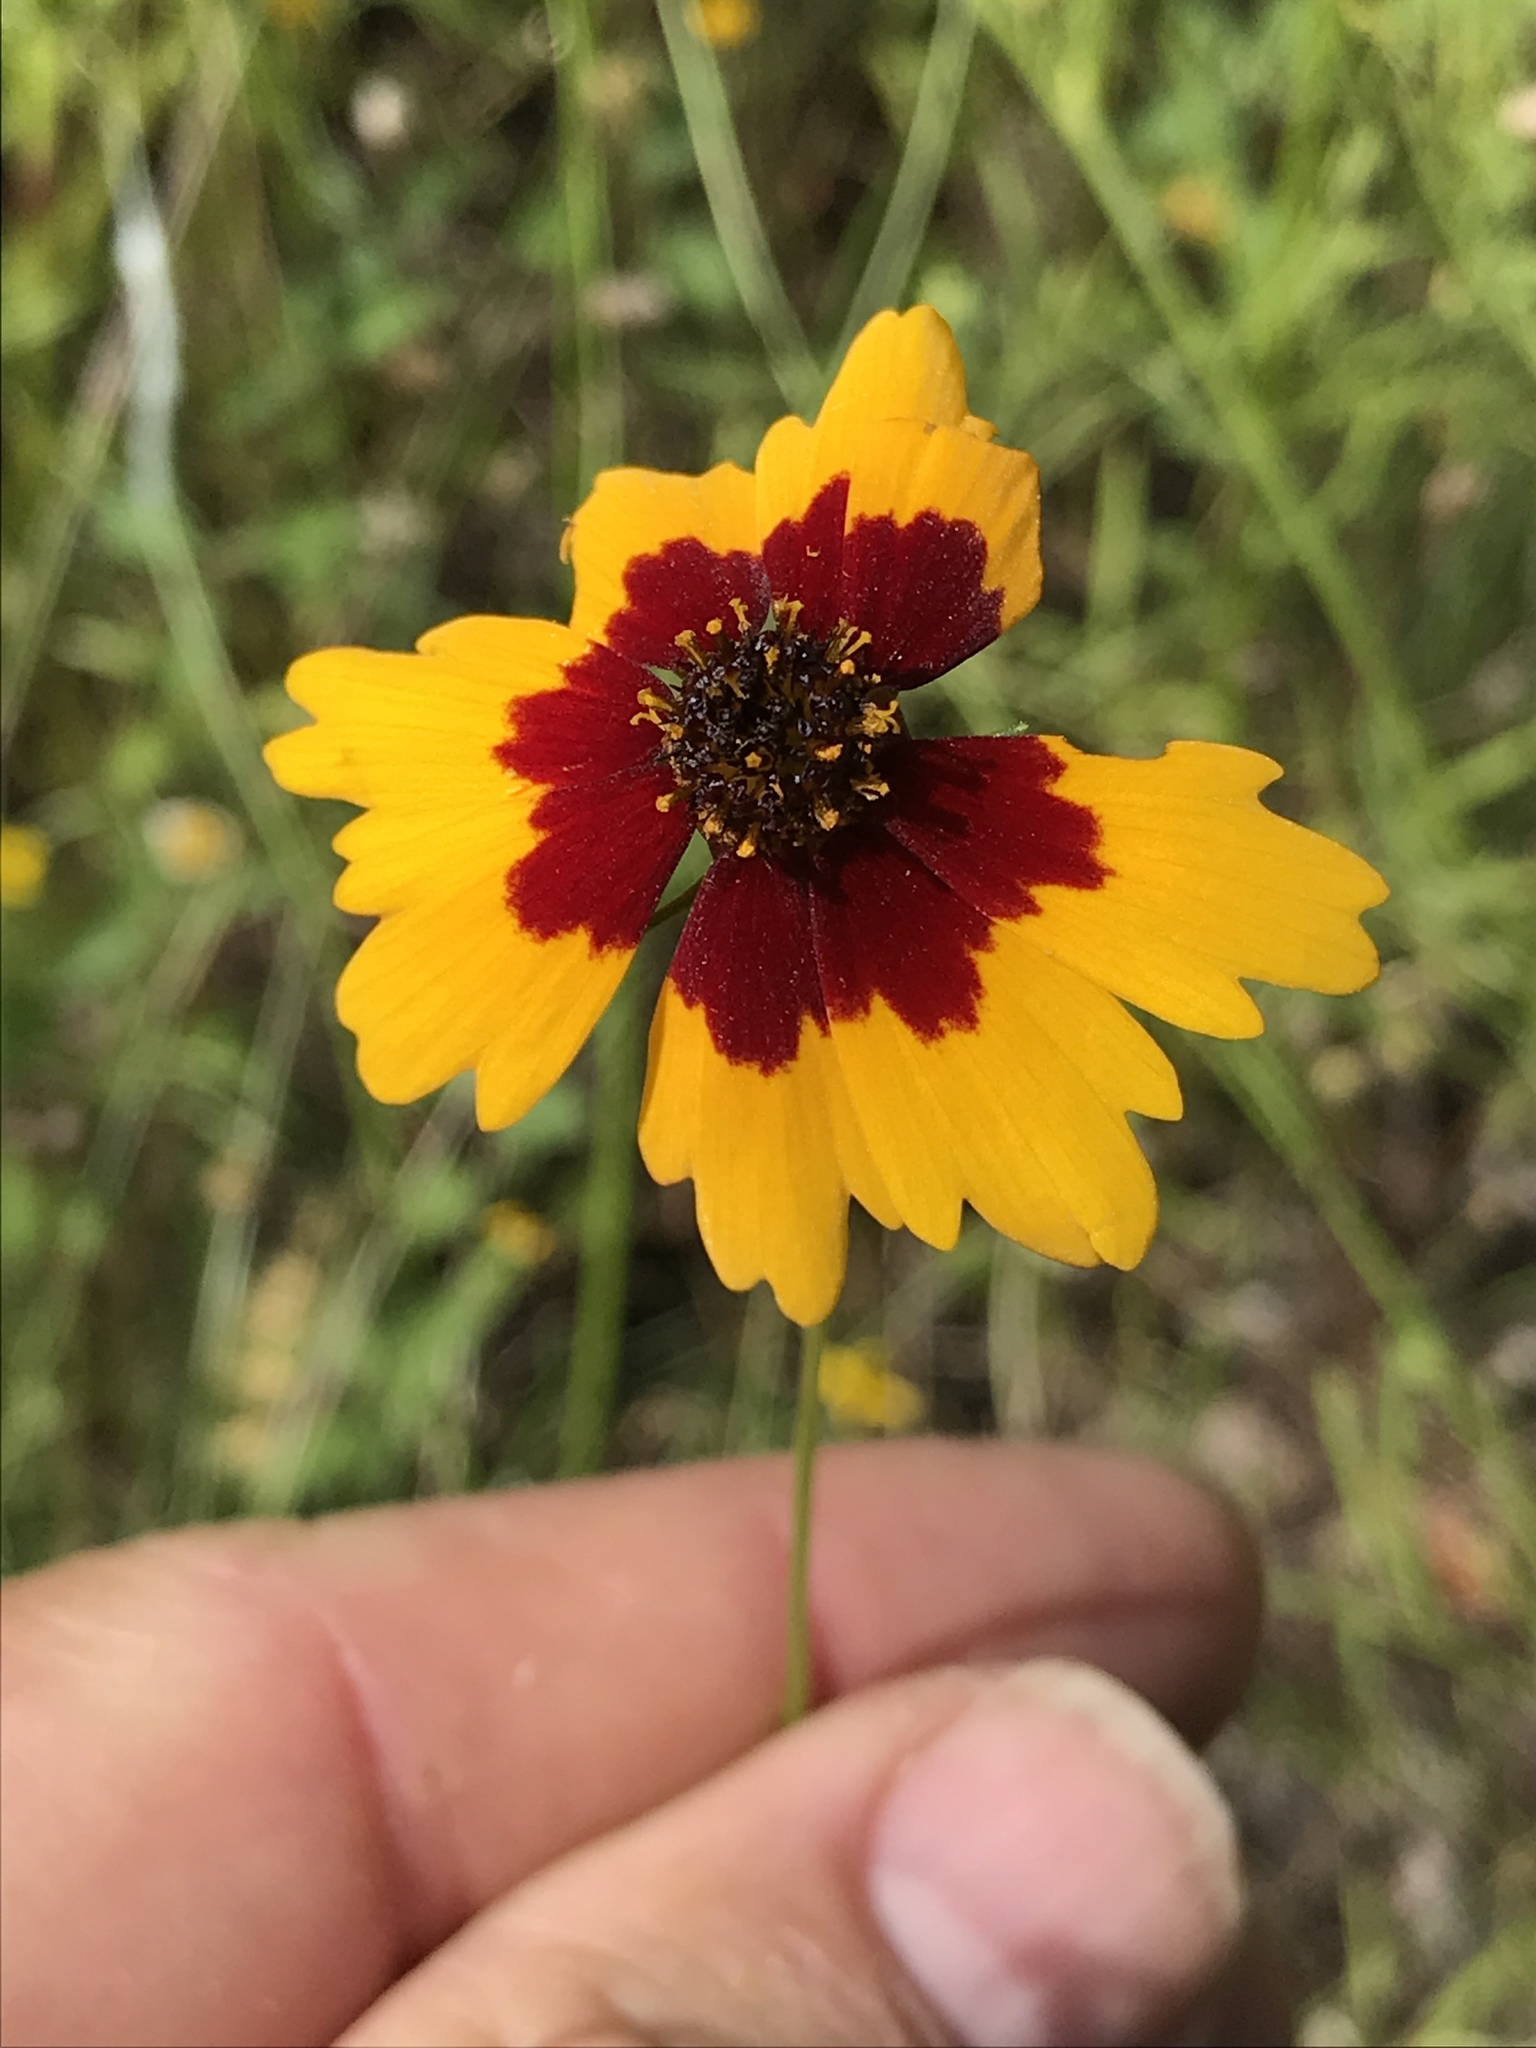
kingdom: Plantae
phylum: Tracheophyta
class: Magnoliopsida
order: Asterales
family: Asteraceae
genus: Coreopsis
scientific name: Coreopsis basalis
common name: Golden-mane coreopsis
